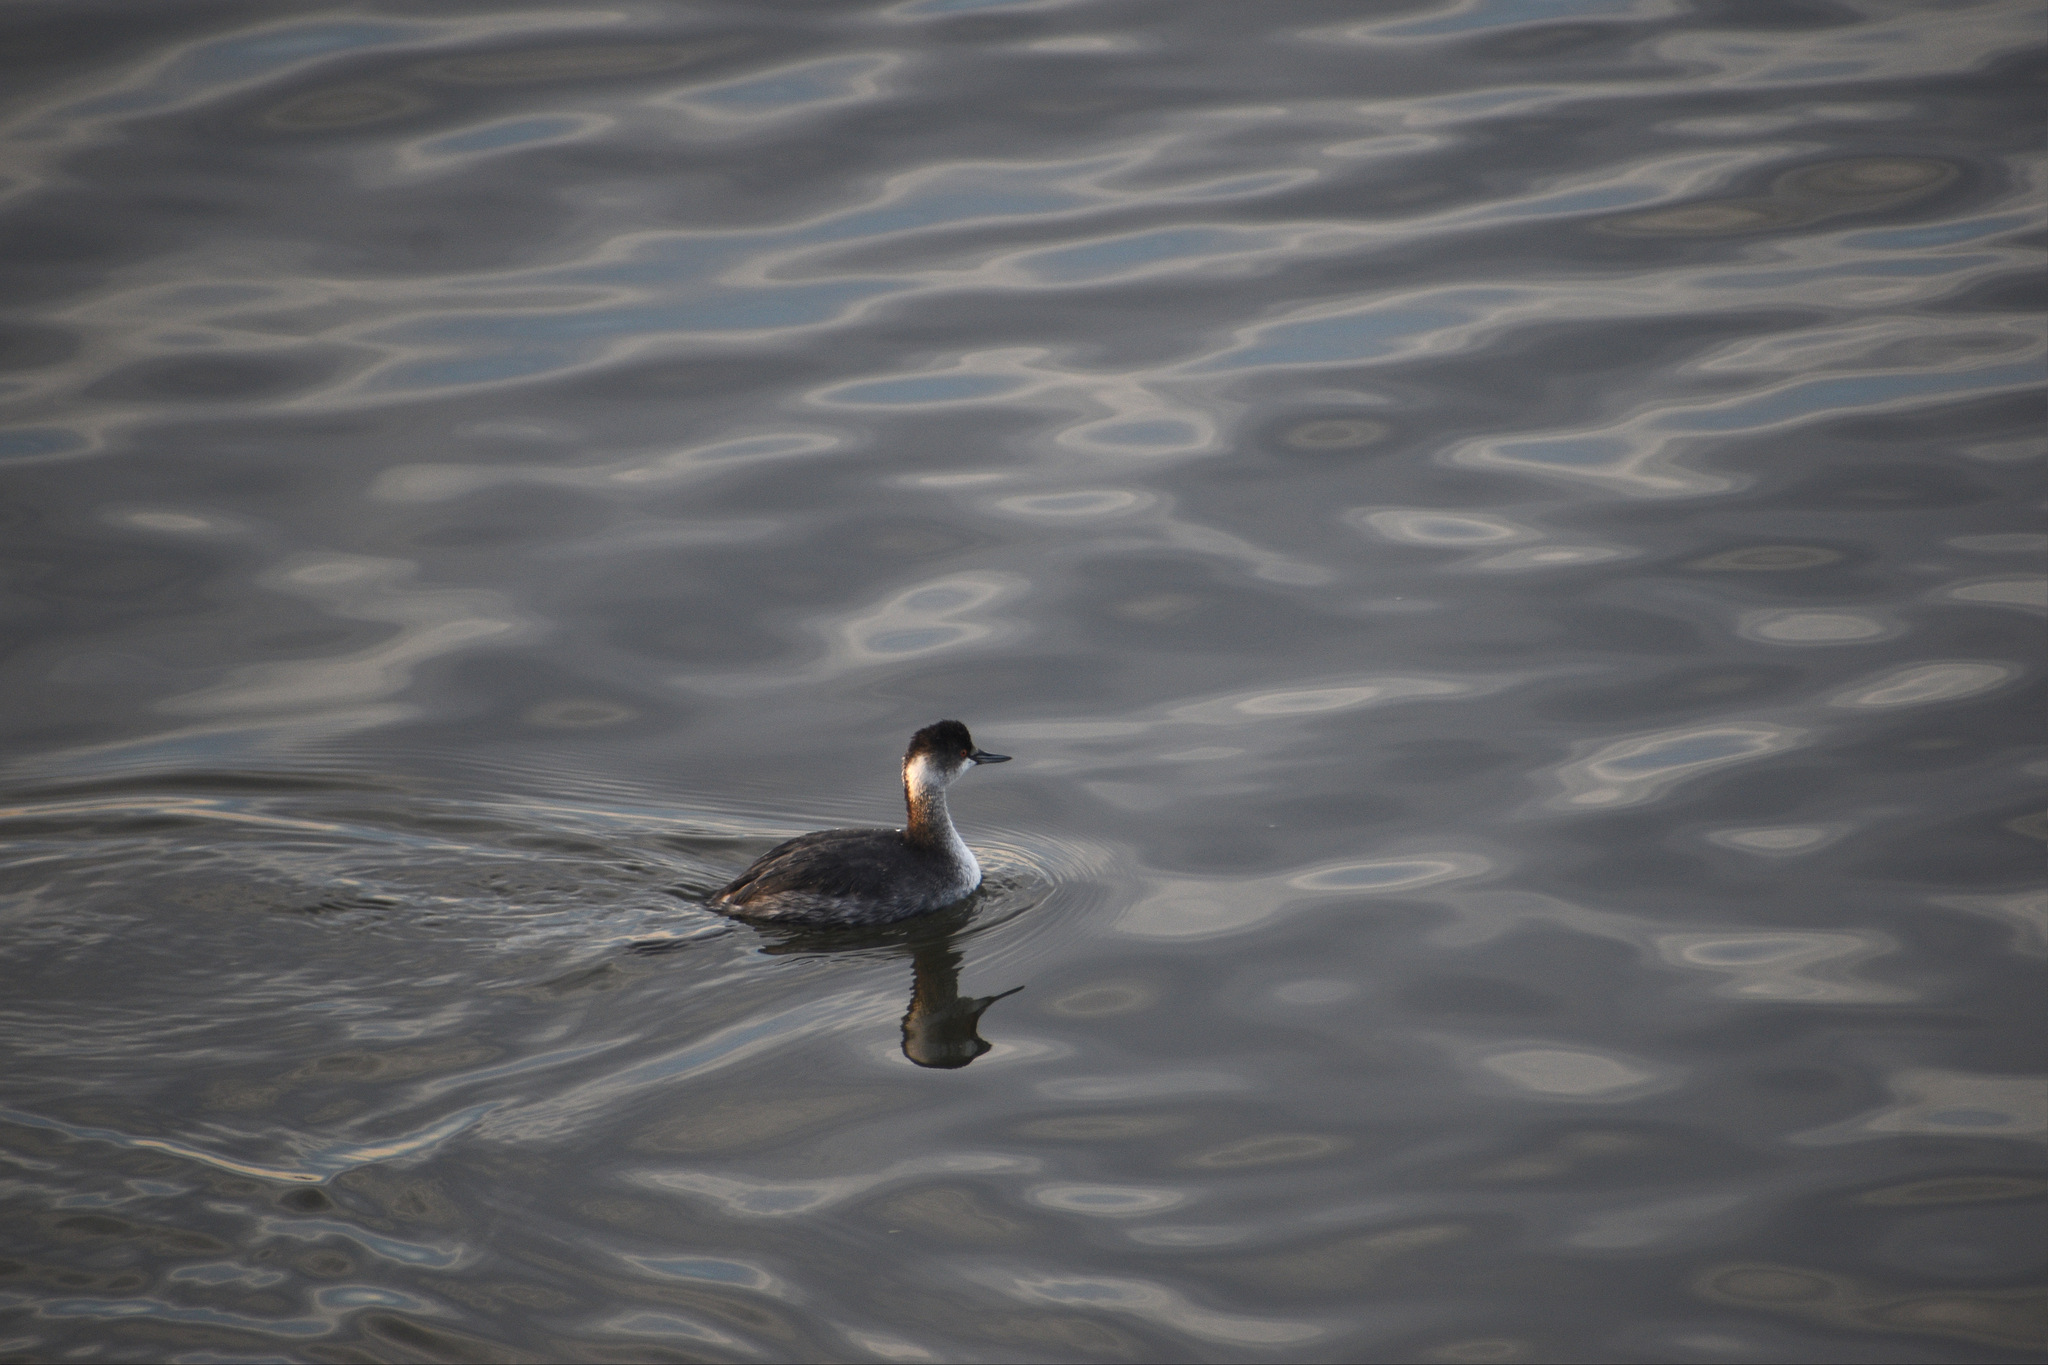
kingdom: Animalia
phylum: Chordata
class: Aves
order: Podicipediformes
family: Podicipedidae
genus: Podiceps
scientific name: Podiceps nigricollis
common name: Black-necked grebe
